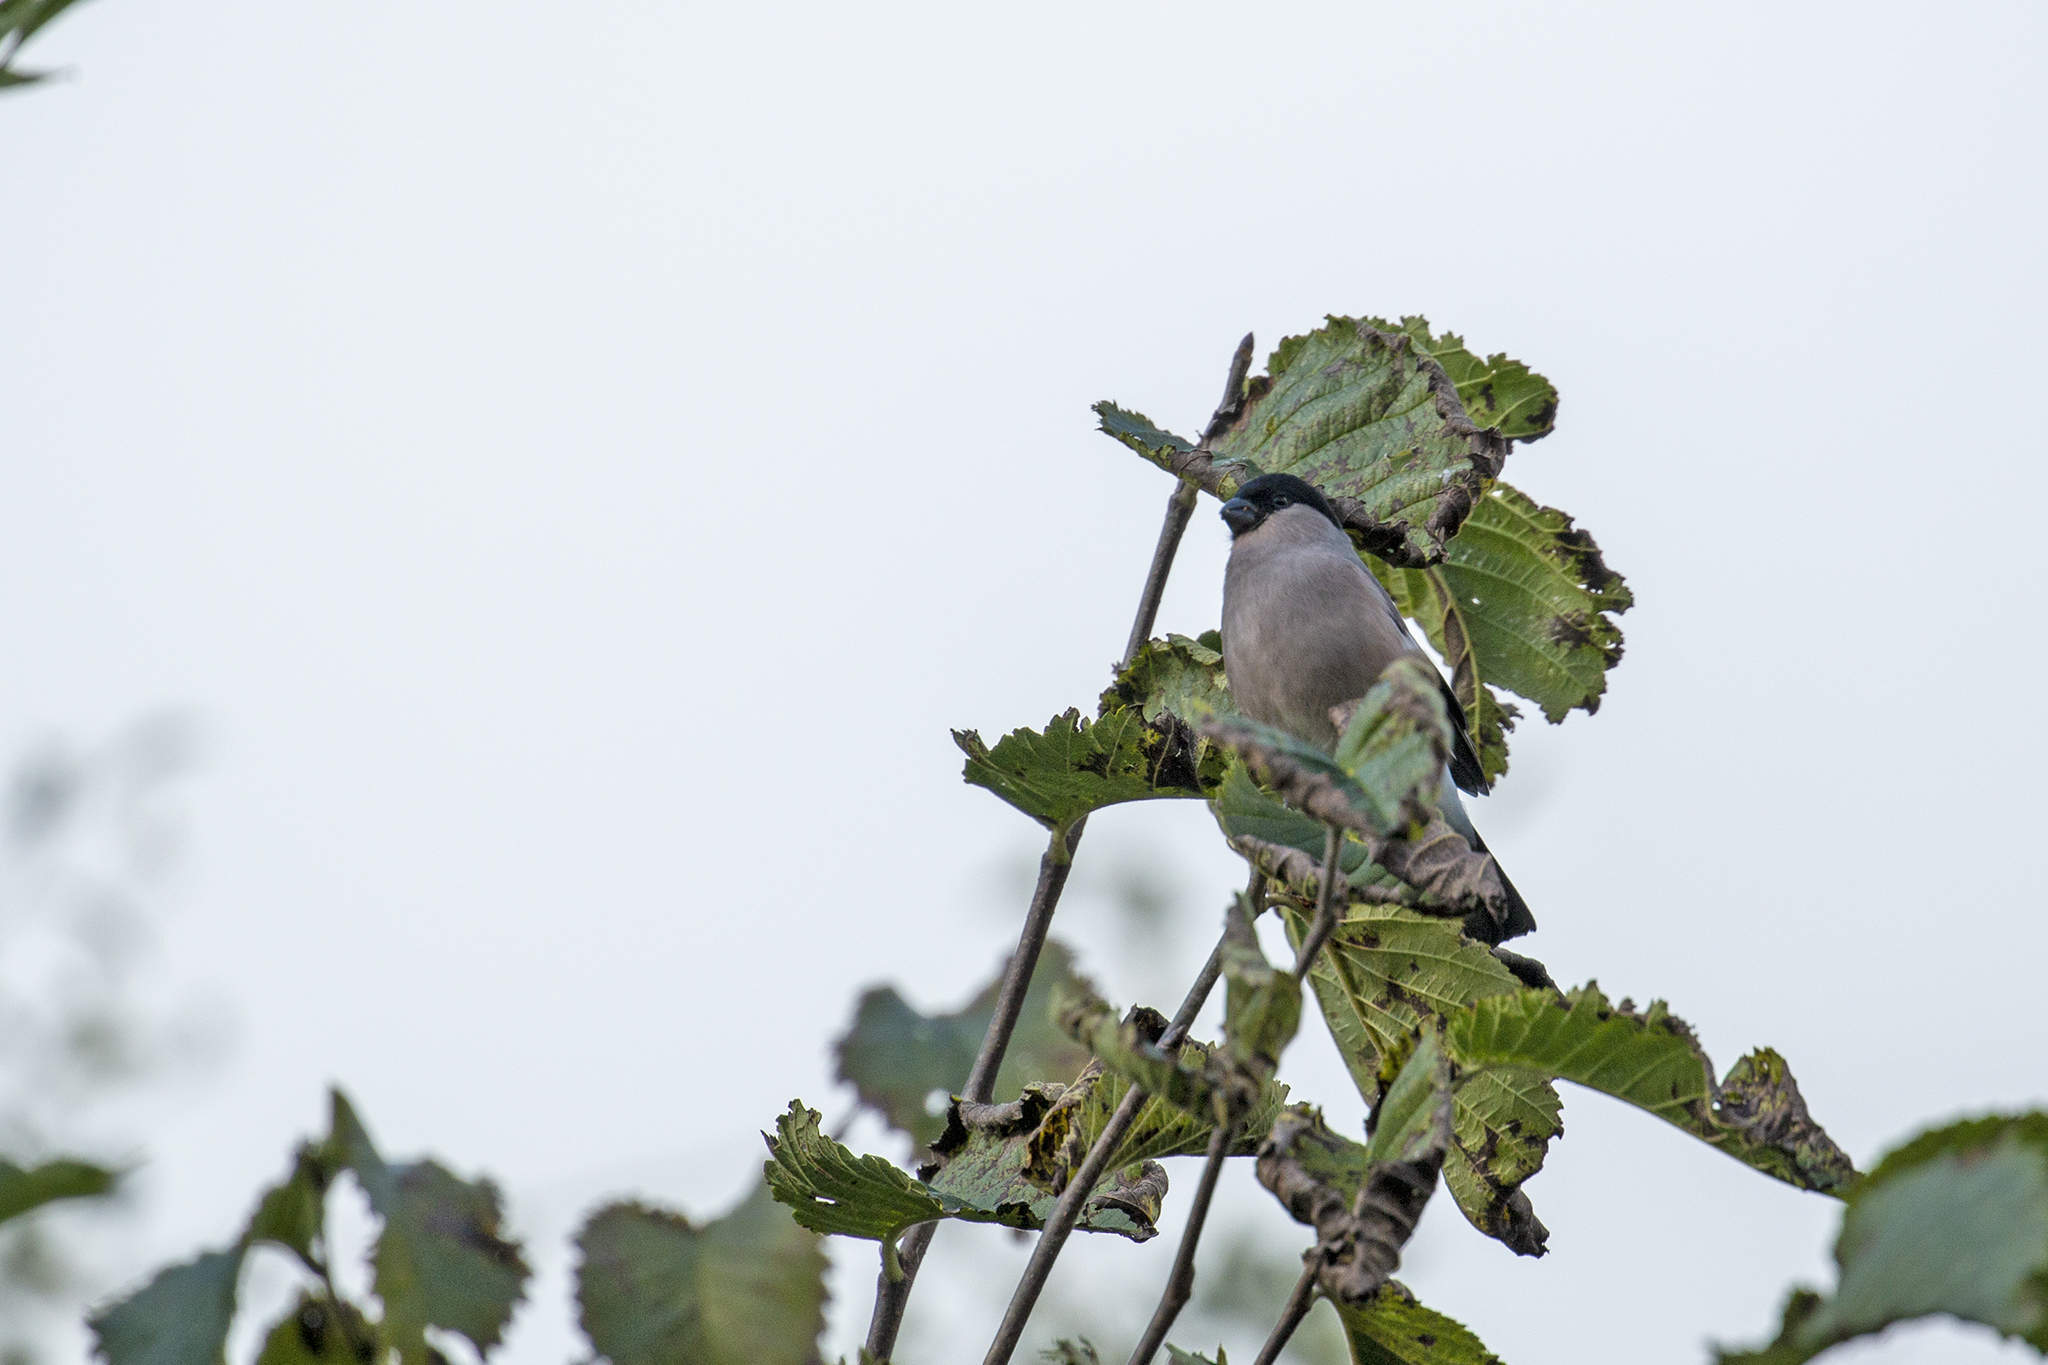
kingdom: Animalia
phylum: Chordata
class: Aves
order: Passeriformes
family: Fringillidae
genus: Pyrrhula
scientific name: Pyrrhula pyrrhula
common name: Eurasian bullfinch
